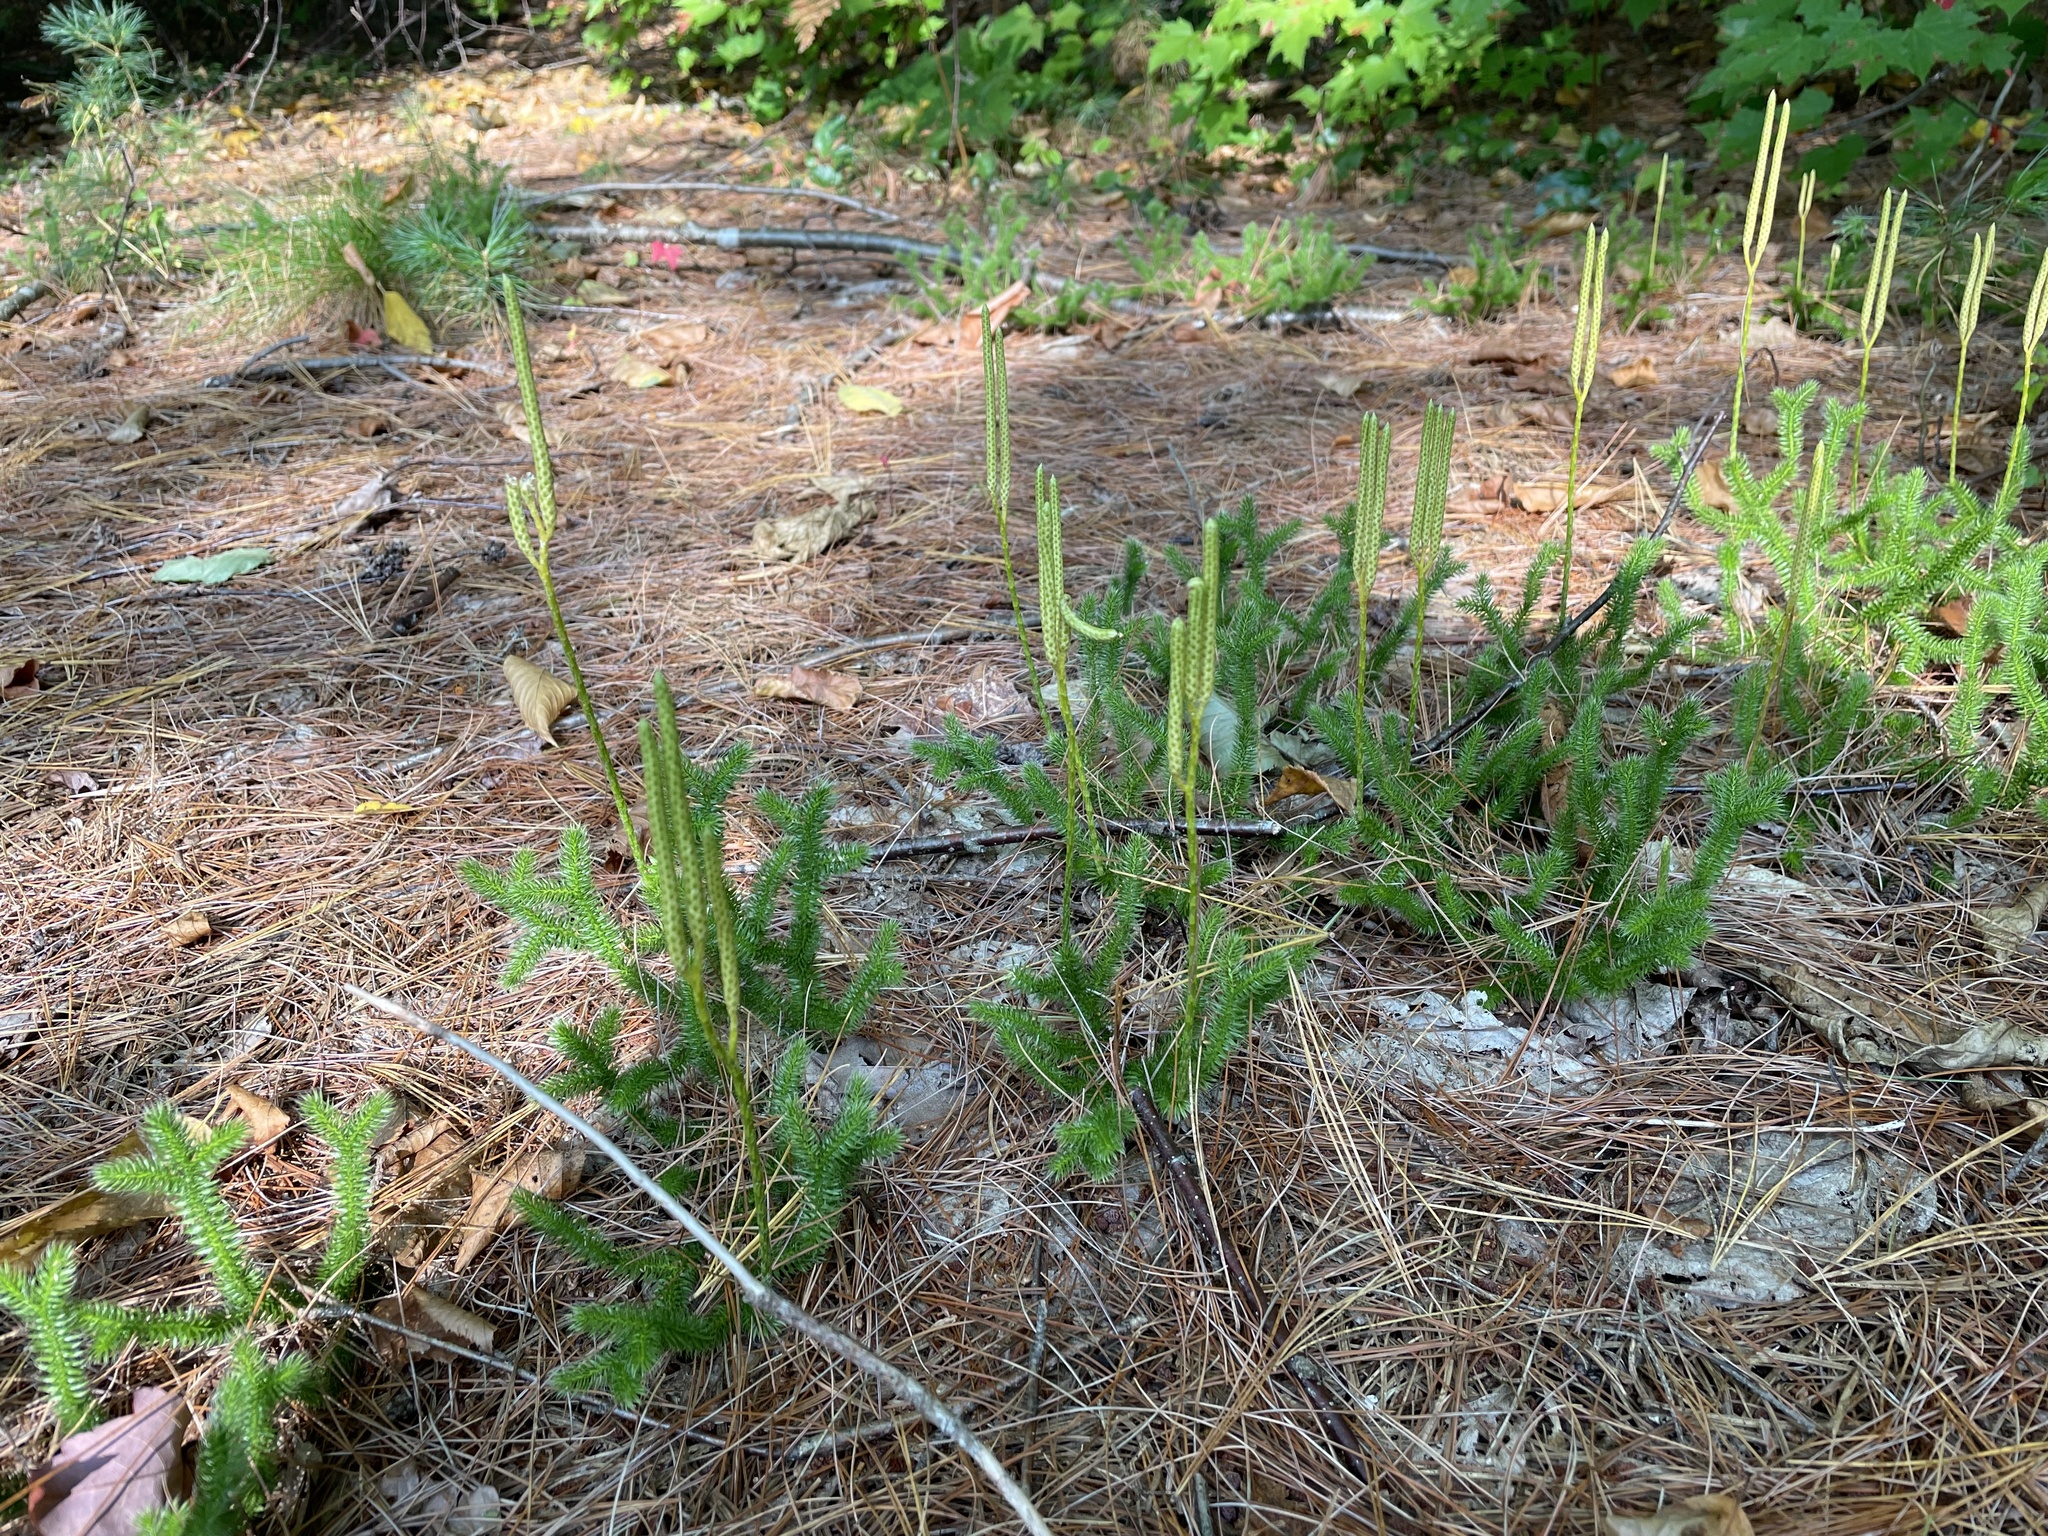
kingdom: Plantae
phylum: Tracheophyta
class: Lycopodiopsida
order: Lycopodiales
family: Lycopodiaceae
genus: Lycopodium
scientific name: Lycopodium clavatum
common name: Stag's-horn clubmoss
